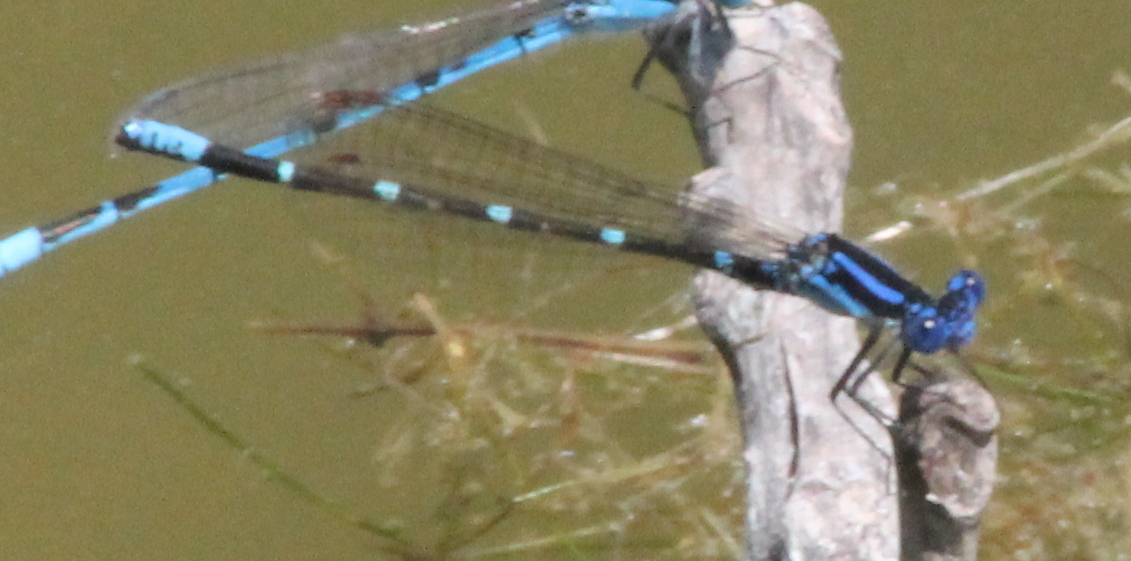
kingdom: Animalia
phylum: Arthropoda
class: Insecta
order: Odonata
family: Coenagrionidae
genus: Argia
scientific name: Argia sedula
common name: Blue-ringed dancer
